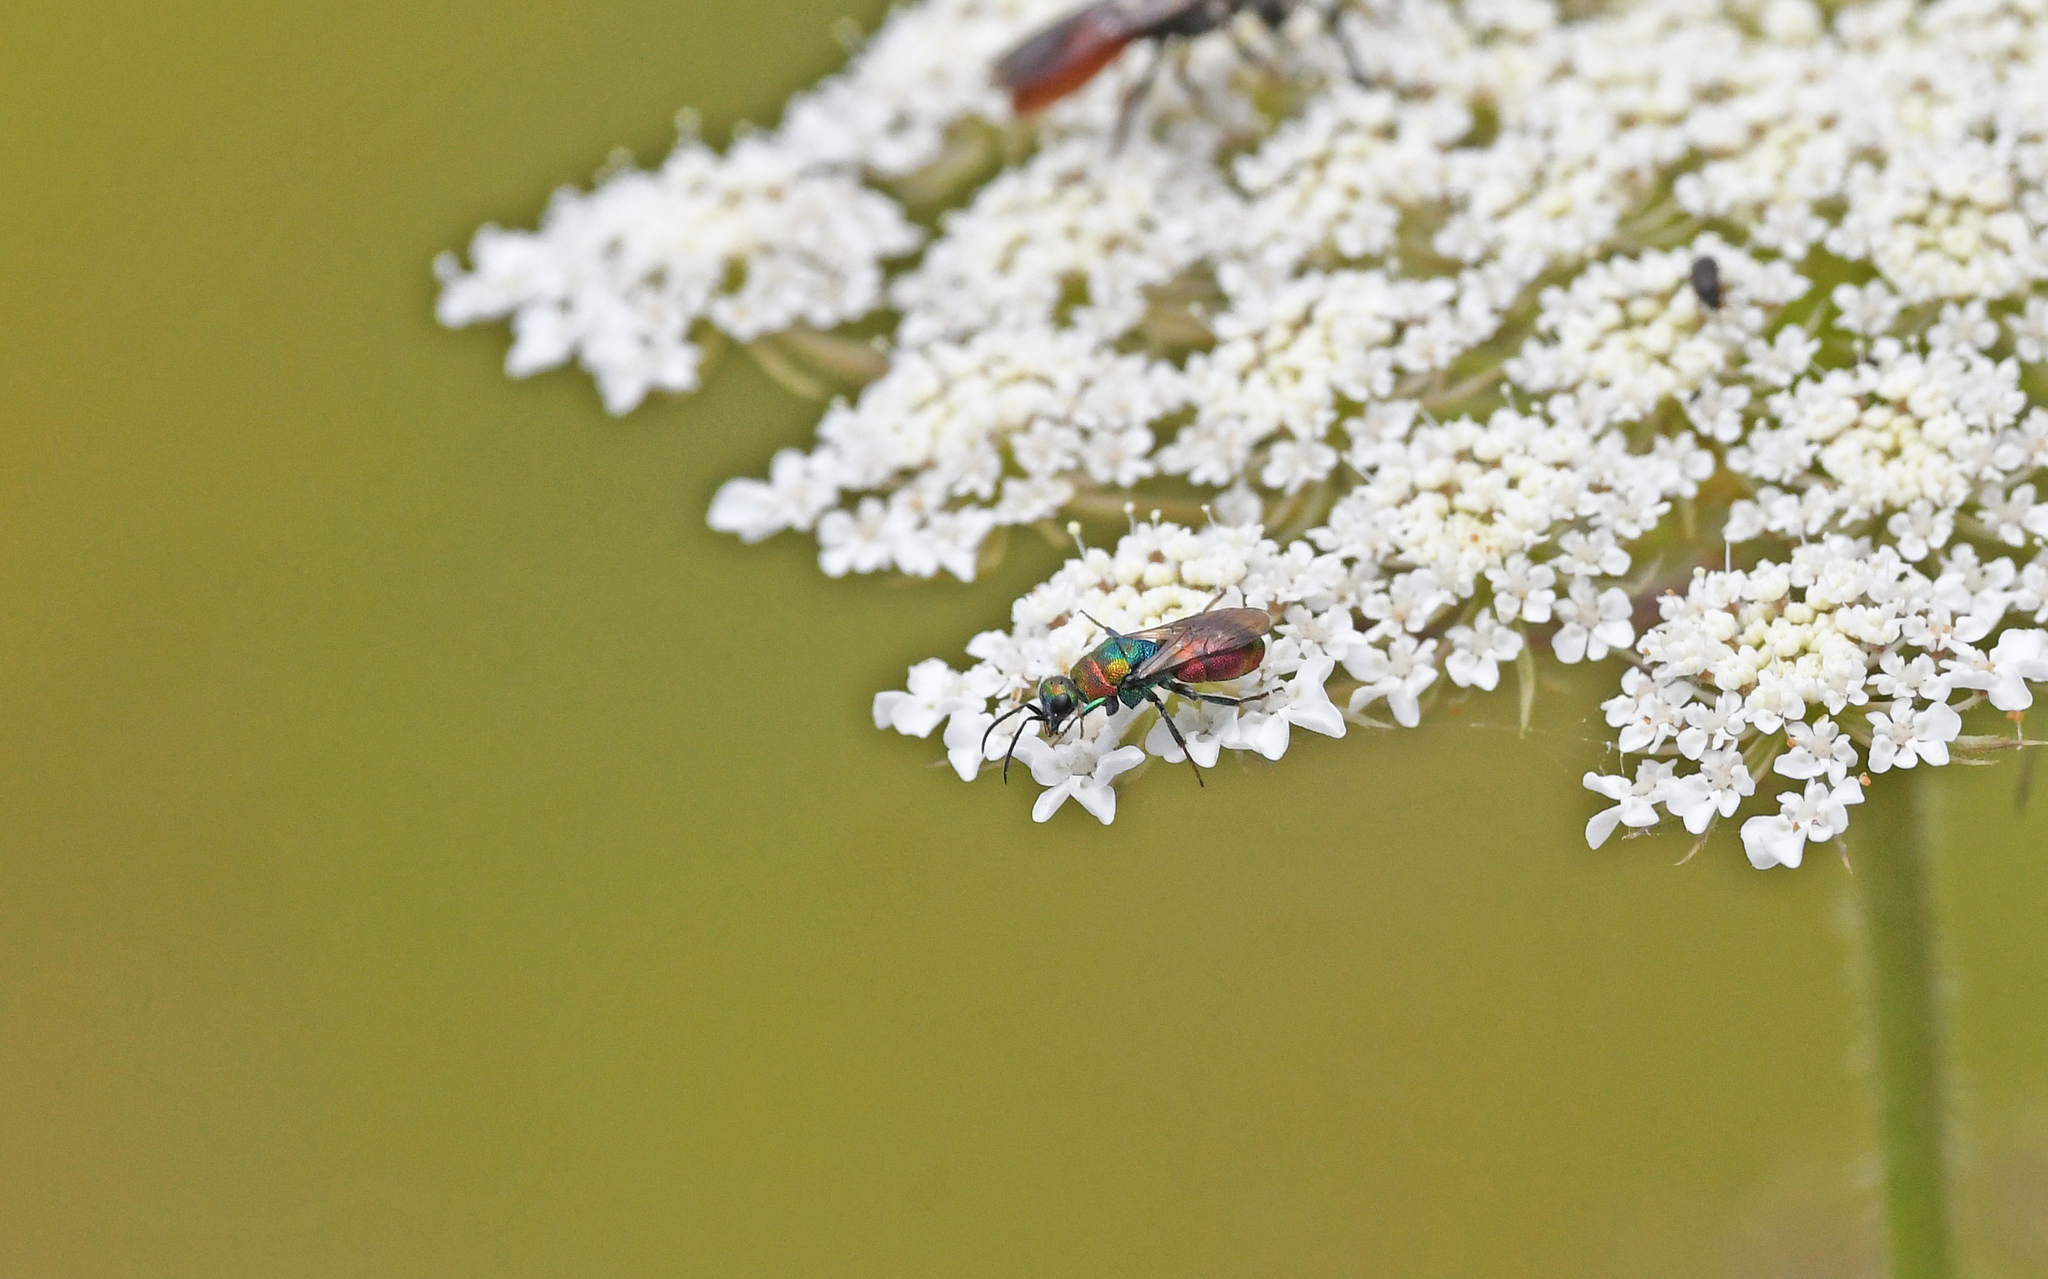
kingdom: Animalia
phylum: Arthropoda
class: Insecta
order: Hymenoptera
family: Chrysididae
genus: Hedychrum
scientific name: Hedychrum rutilans
